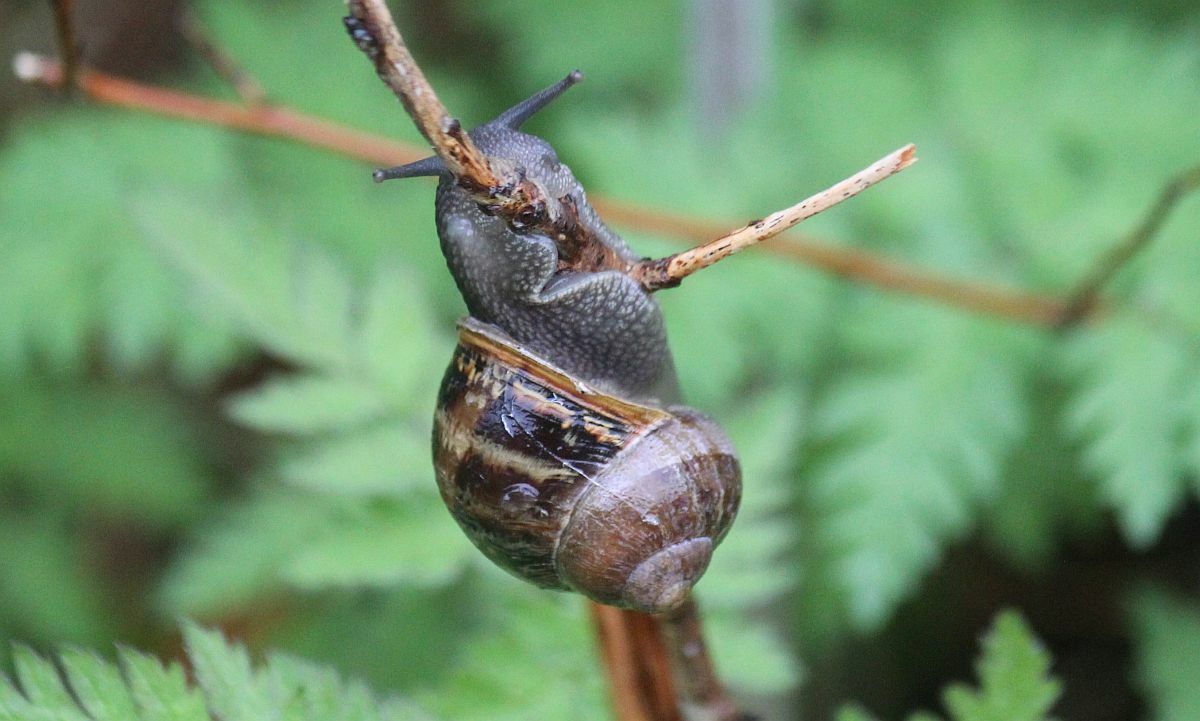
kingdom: Animalia
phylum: Mollusca
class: Gastropoda
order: Stylommatophora
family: Helicidae
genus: Cornu
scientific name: Cornu aspersum
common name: Brown garden snail
